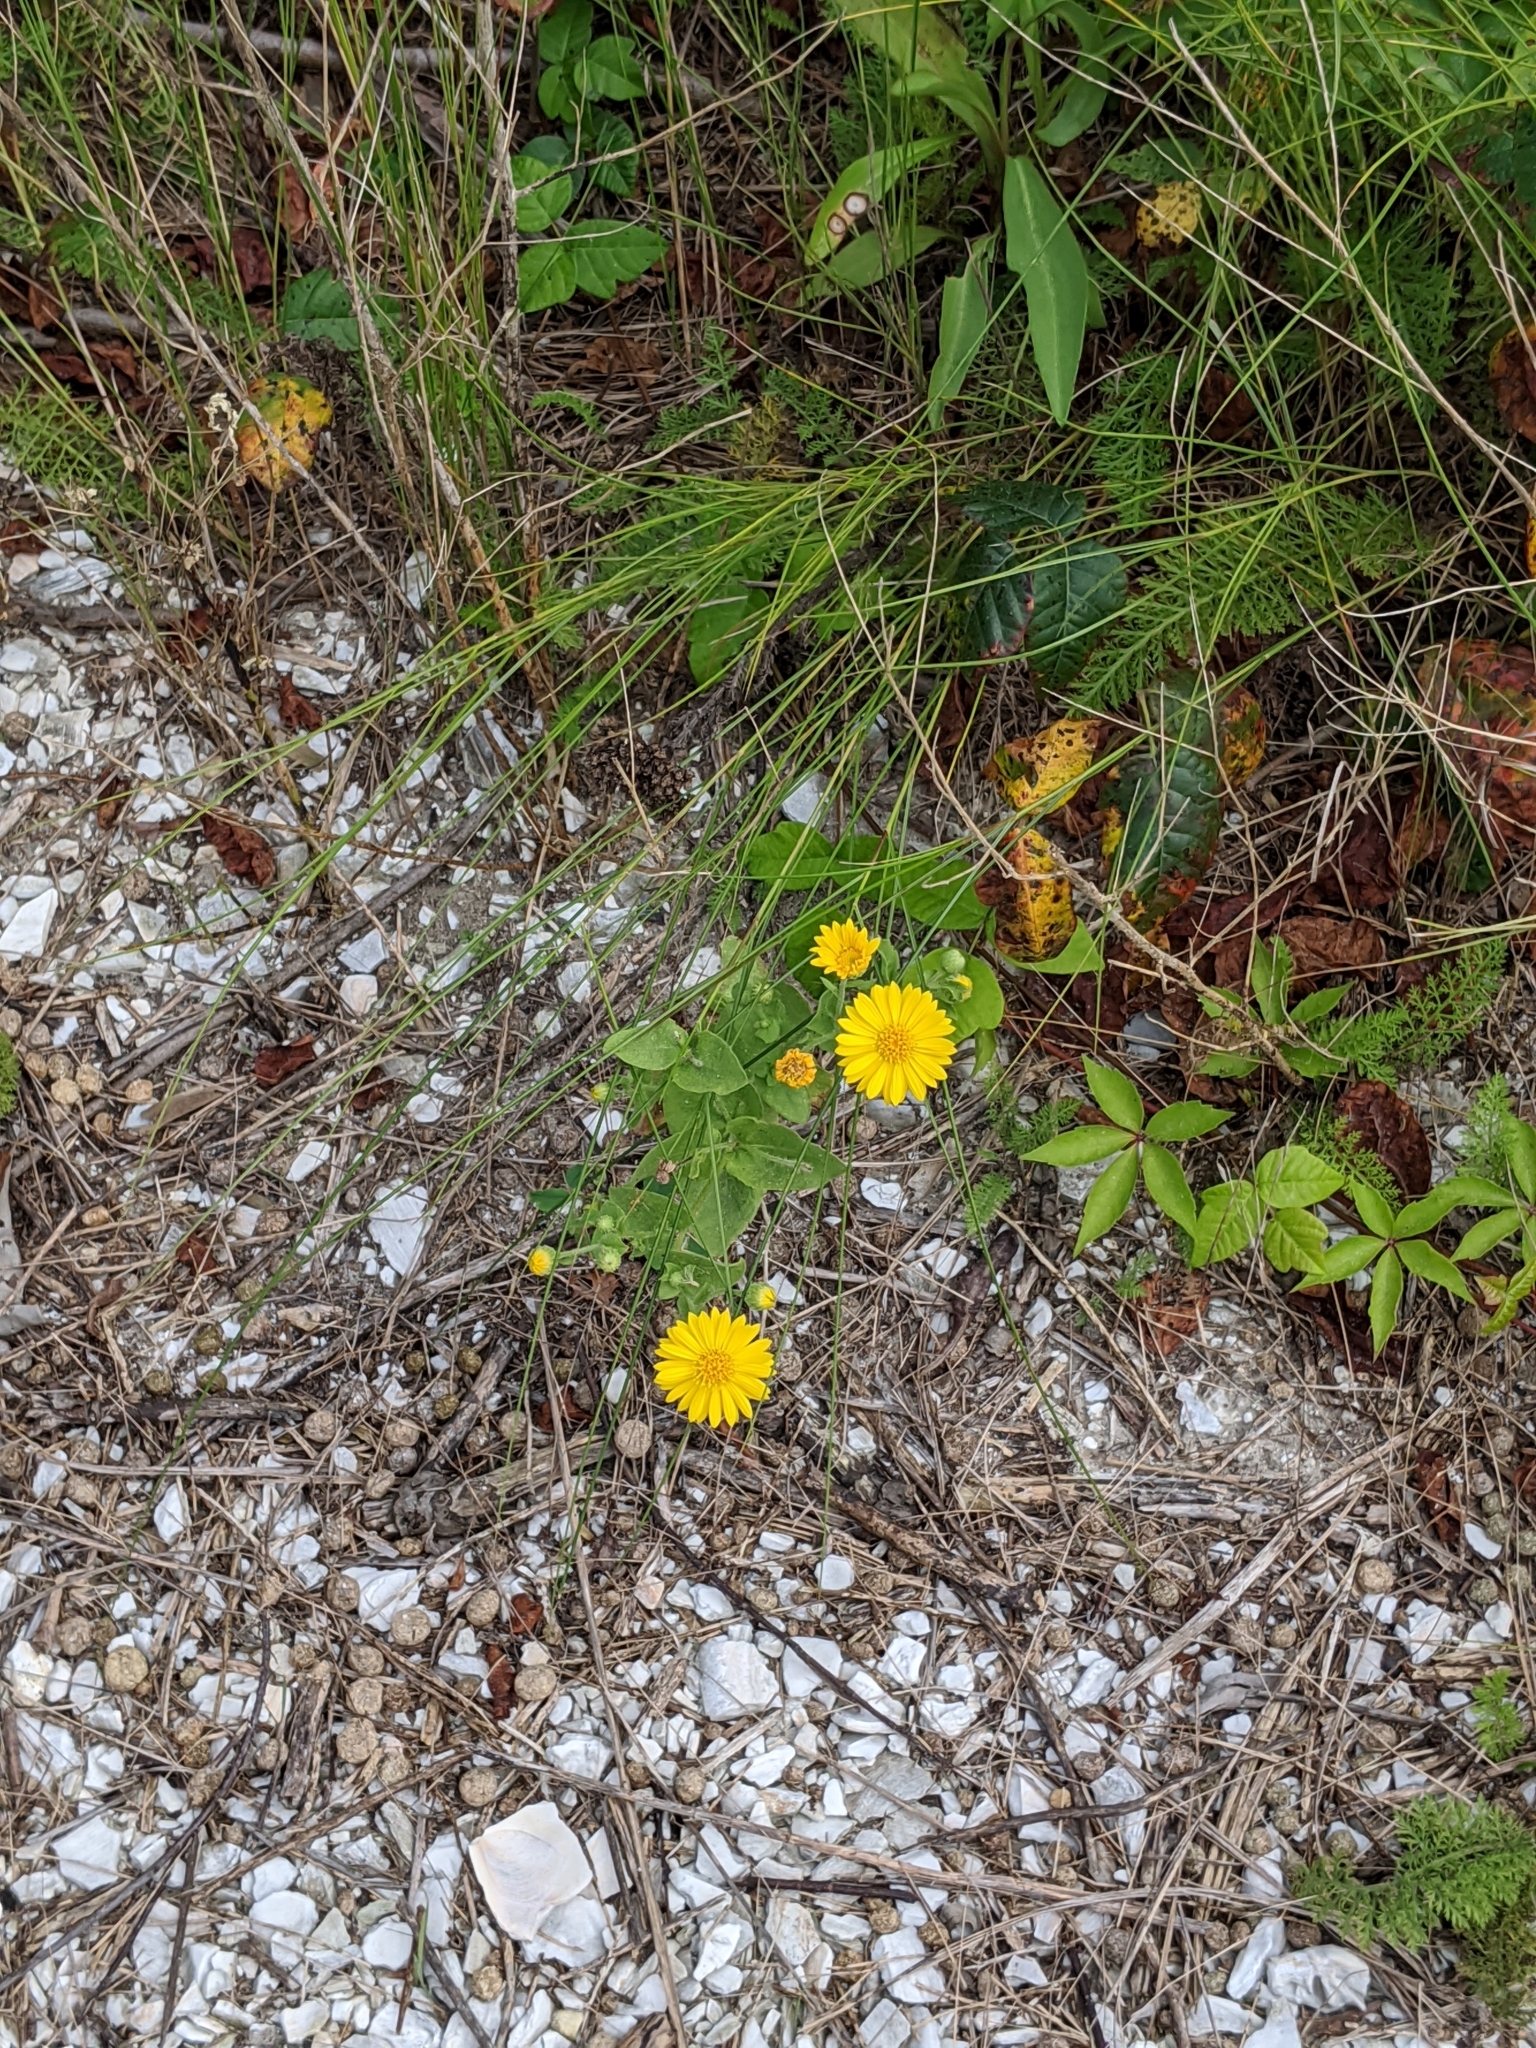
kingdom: Plantae
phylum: Tracheophyta
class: Magnoliopsida
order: Asterales
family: Asteraceae
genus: Heterotheca
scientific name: Heterotheca subaxillaris
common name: Camphorweed
